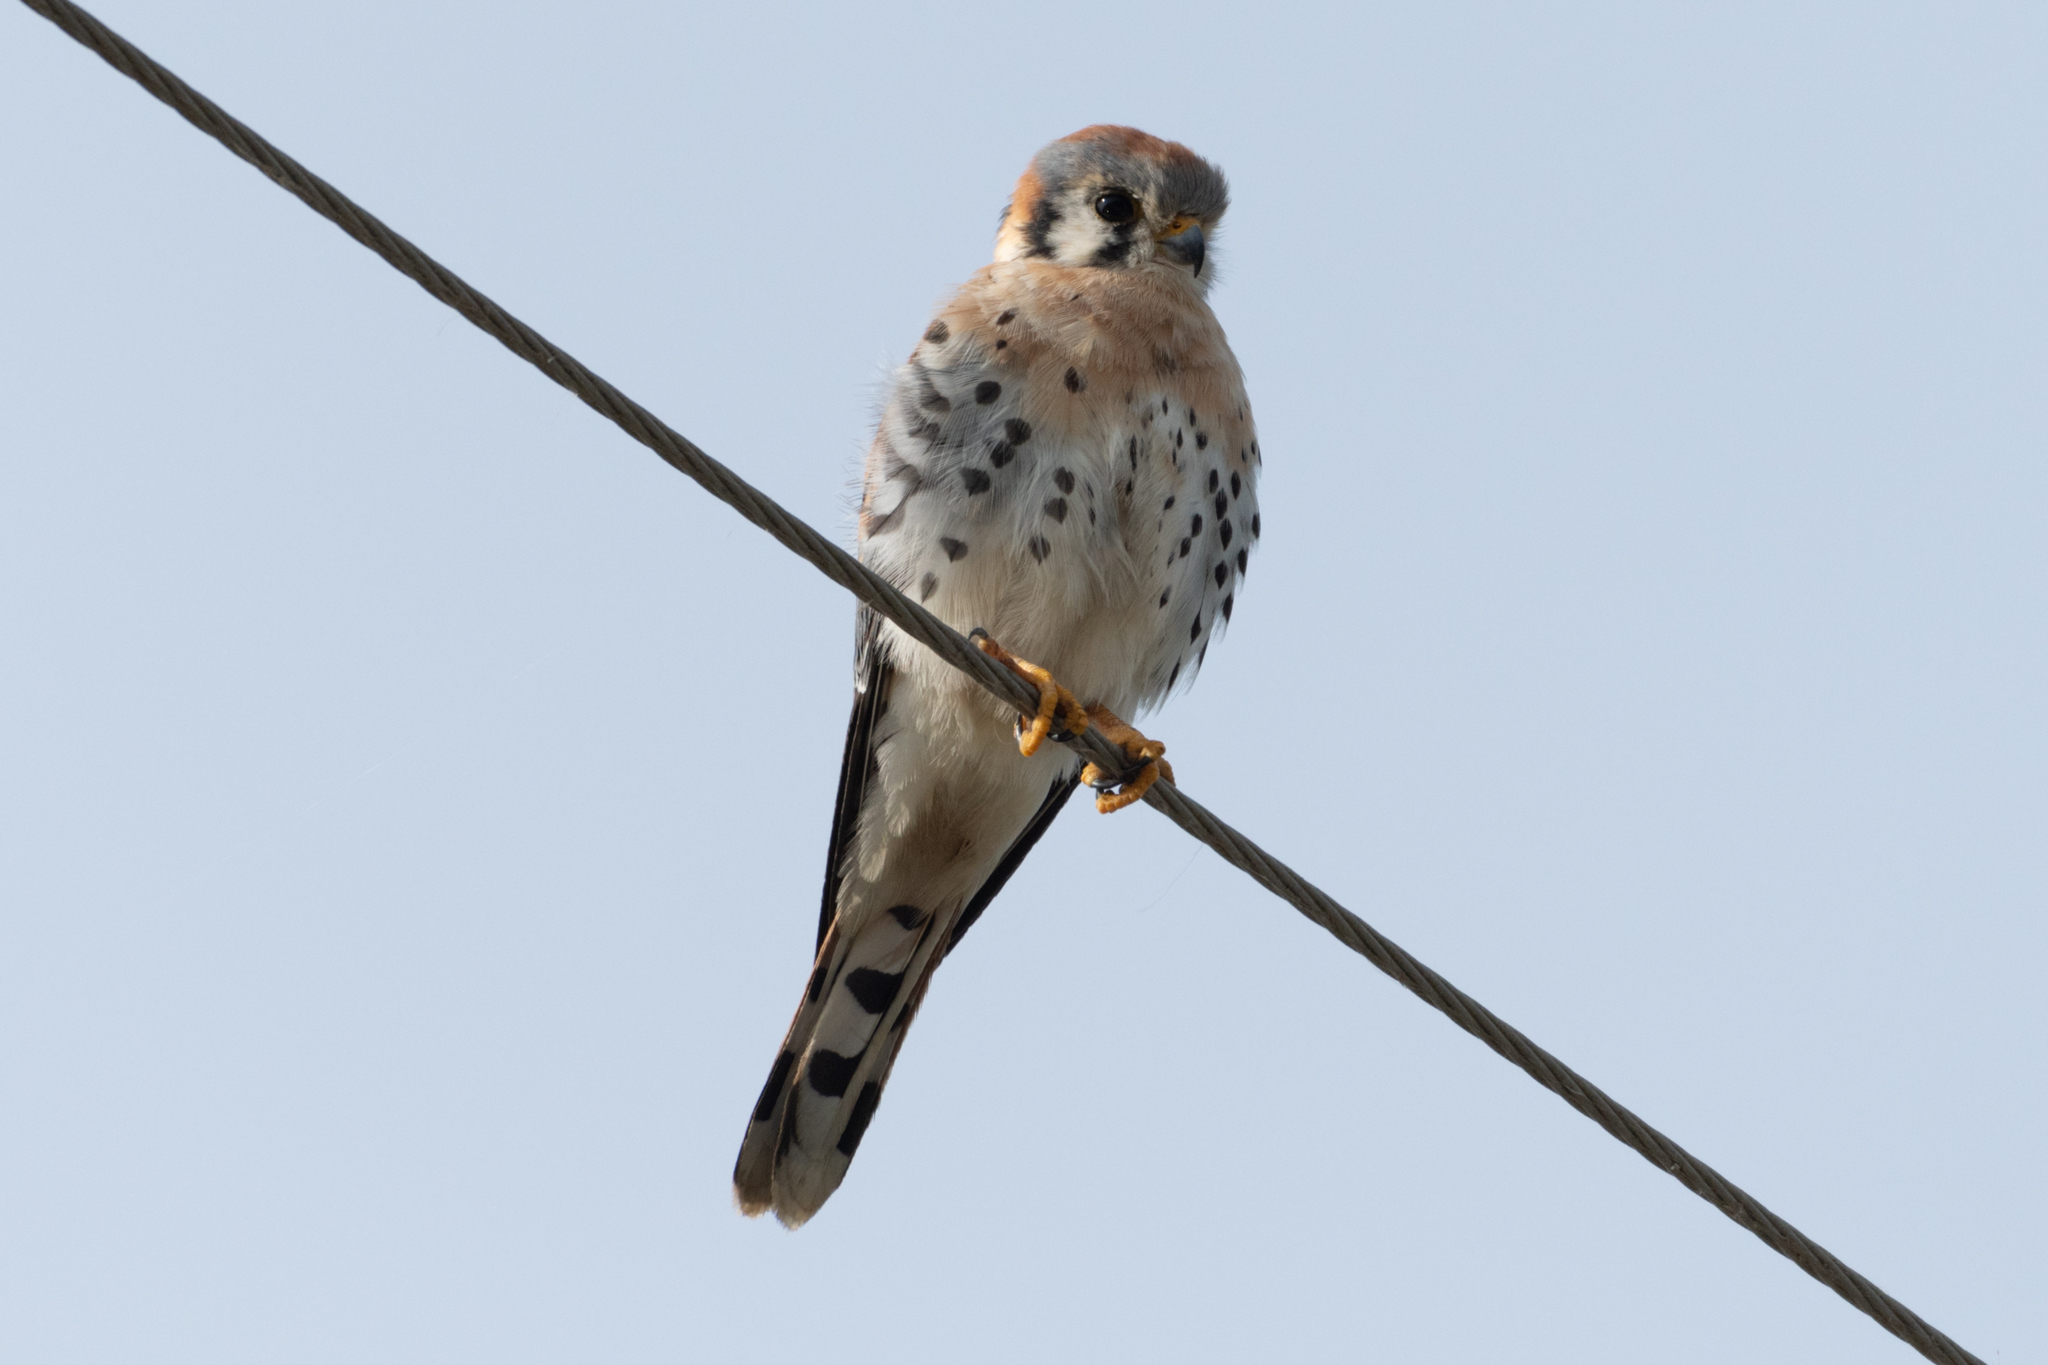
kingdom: Animalia
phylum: Chordata
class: Aves
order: Falconiformes
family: Falconidae
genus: Falco
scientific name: Falco sparverius
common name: American kestrel
